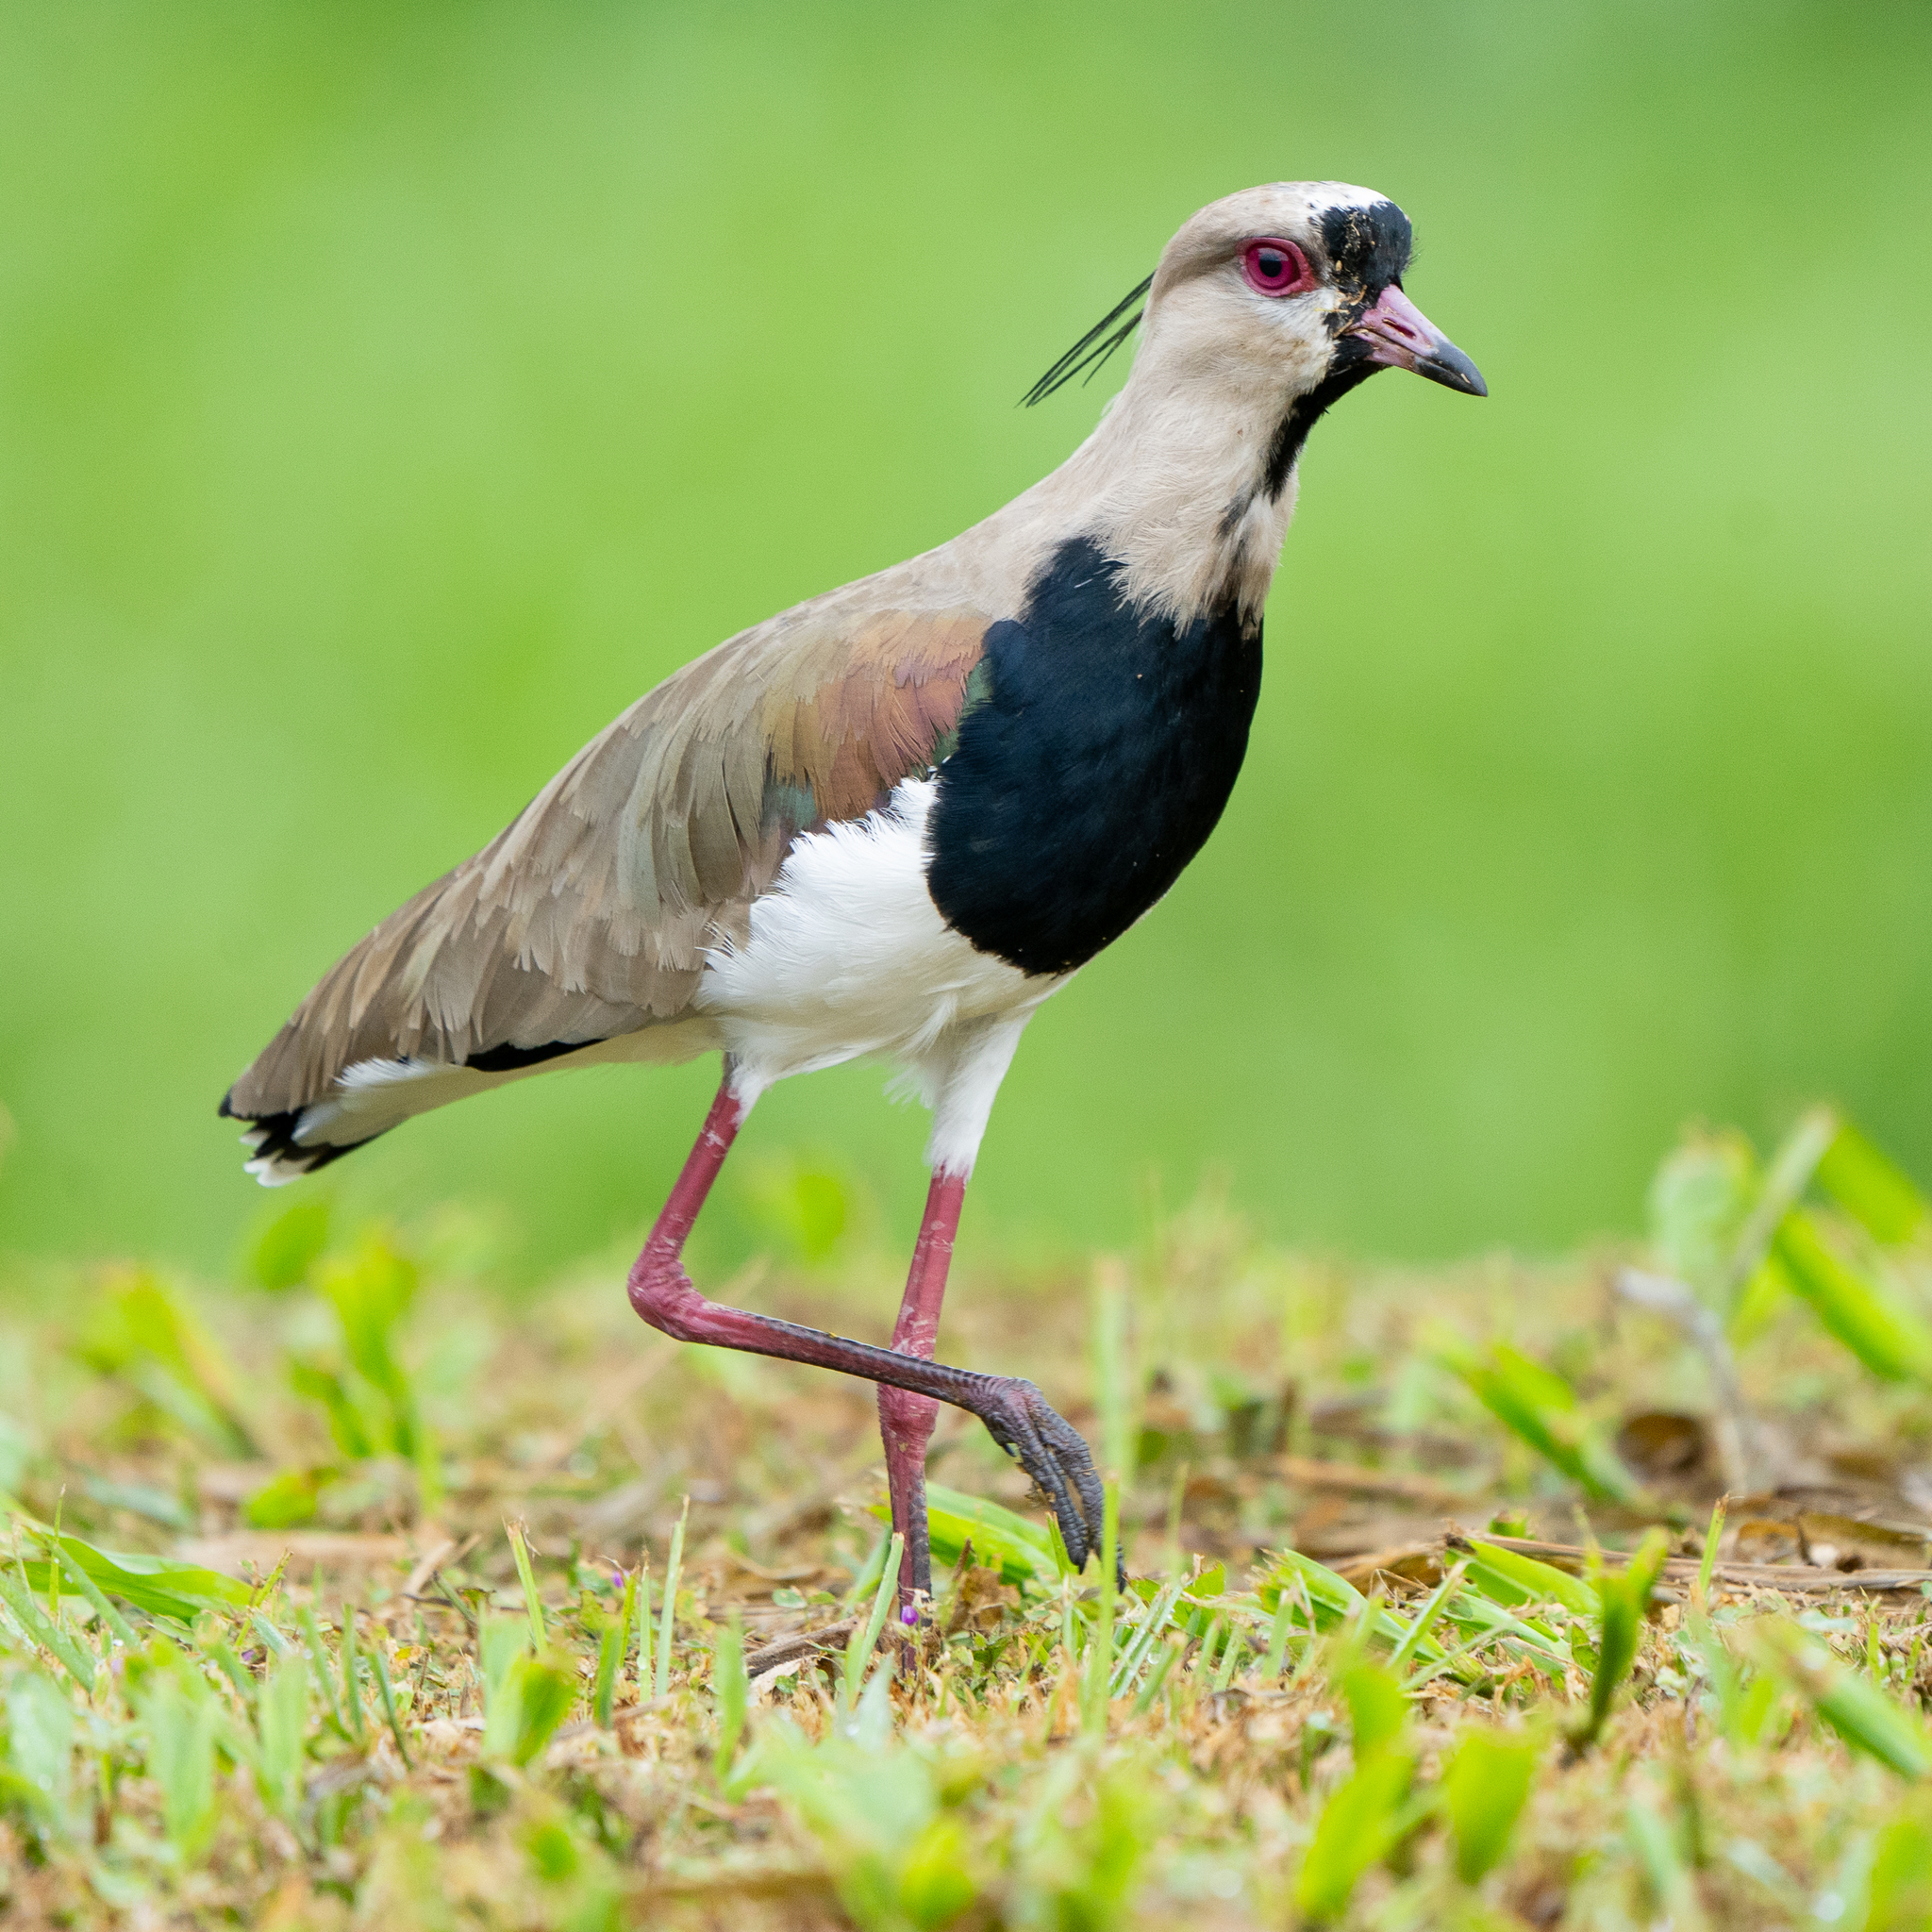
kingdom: Animalia
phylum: Chordata
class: Aves
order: Charadriiformes
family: Charadriidae
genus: Vanellus
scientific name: Vanellus chilensis
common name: Southern lapwing
